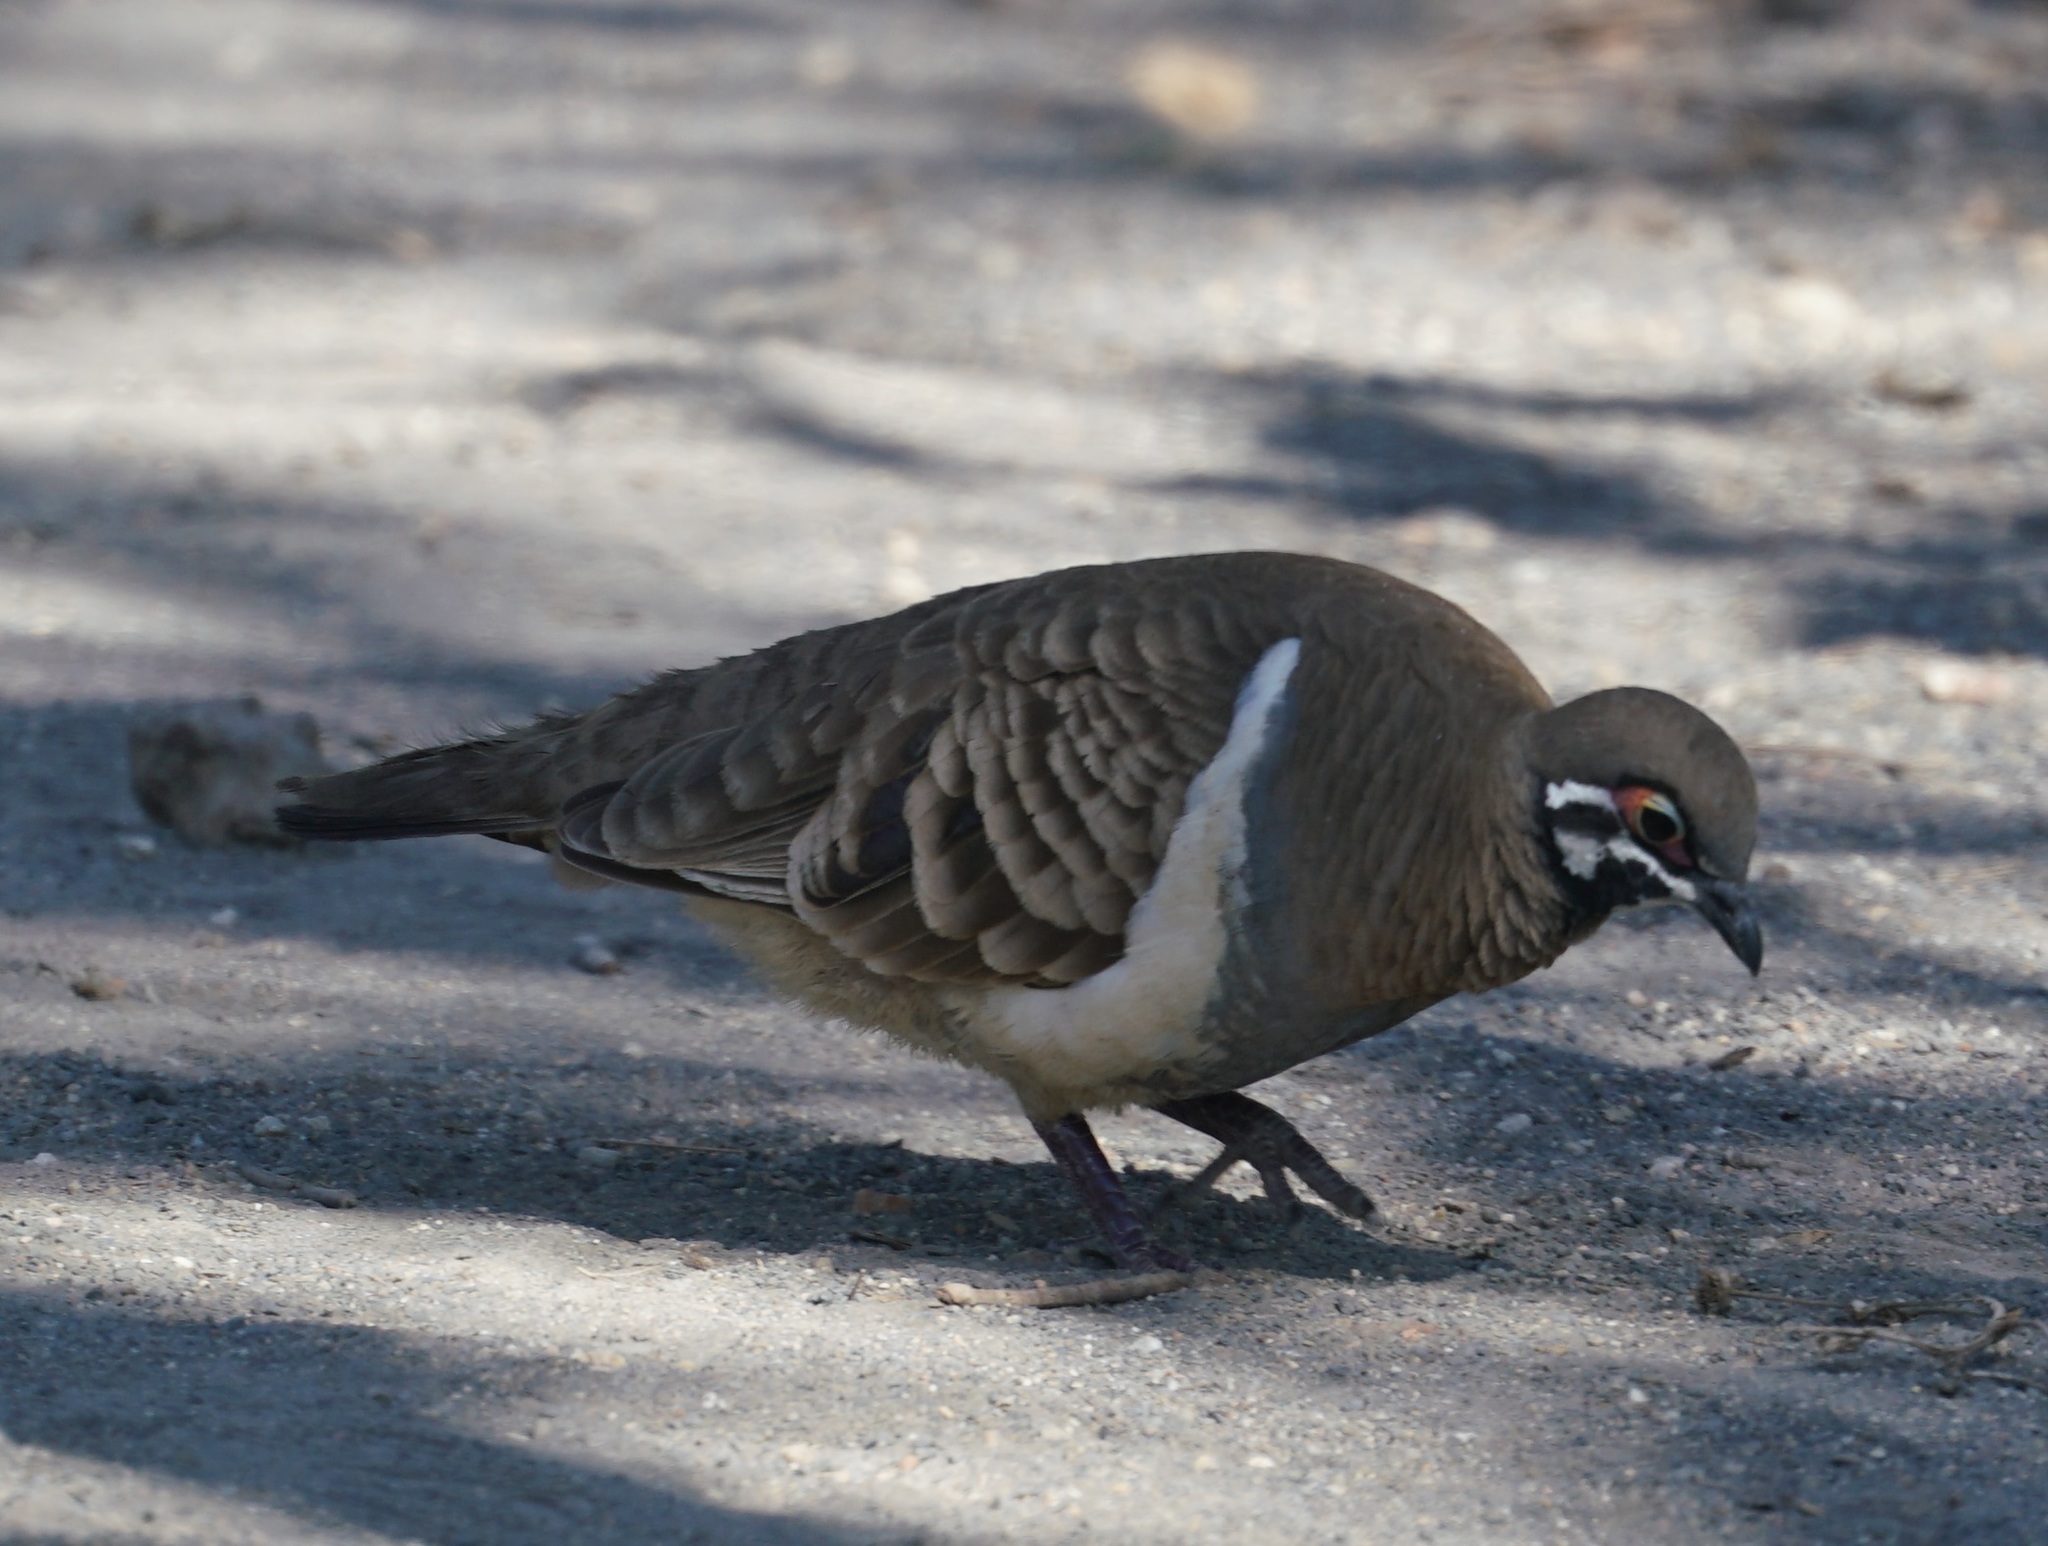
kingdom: Animalia
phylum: Chordata
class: Aves
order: Columbiformes
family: Columbidae
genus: Geophaps
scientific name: Geophaps scripta
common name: Squatter pigeon
